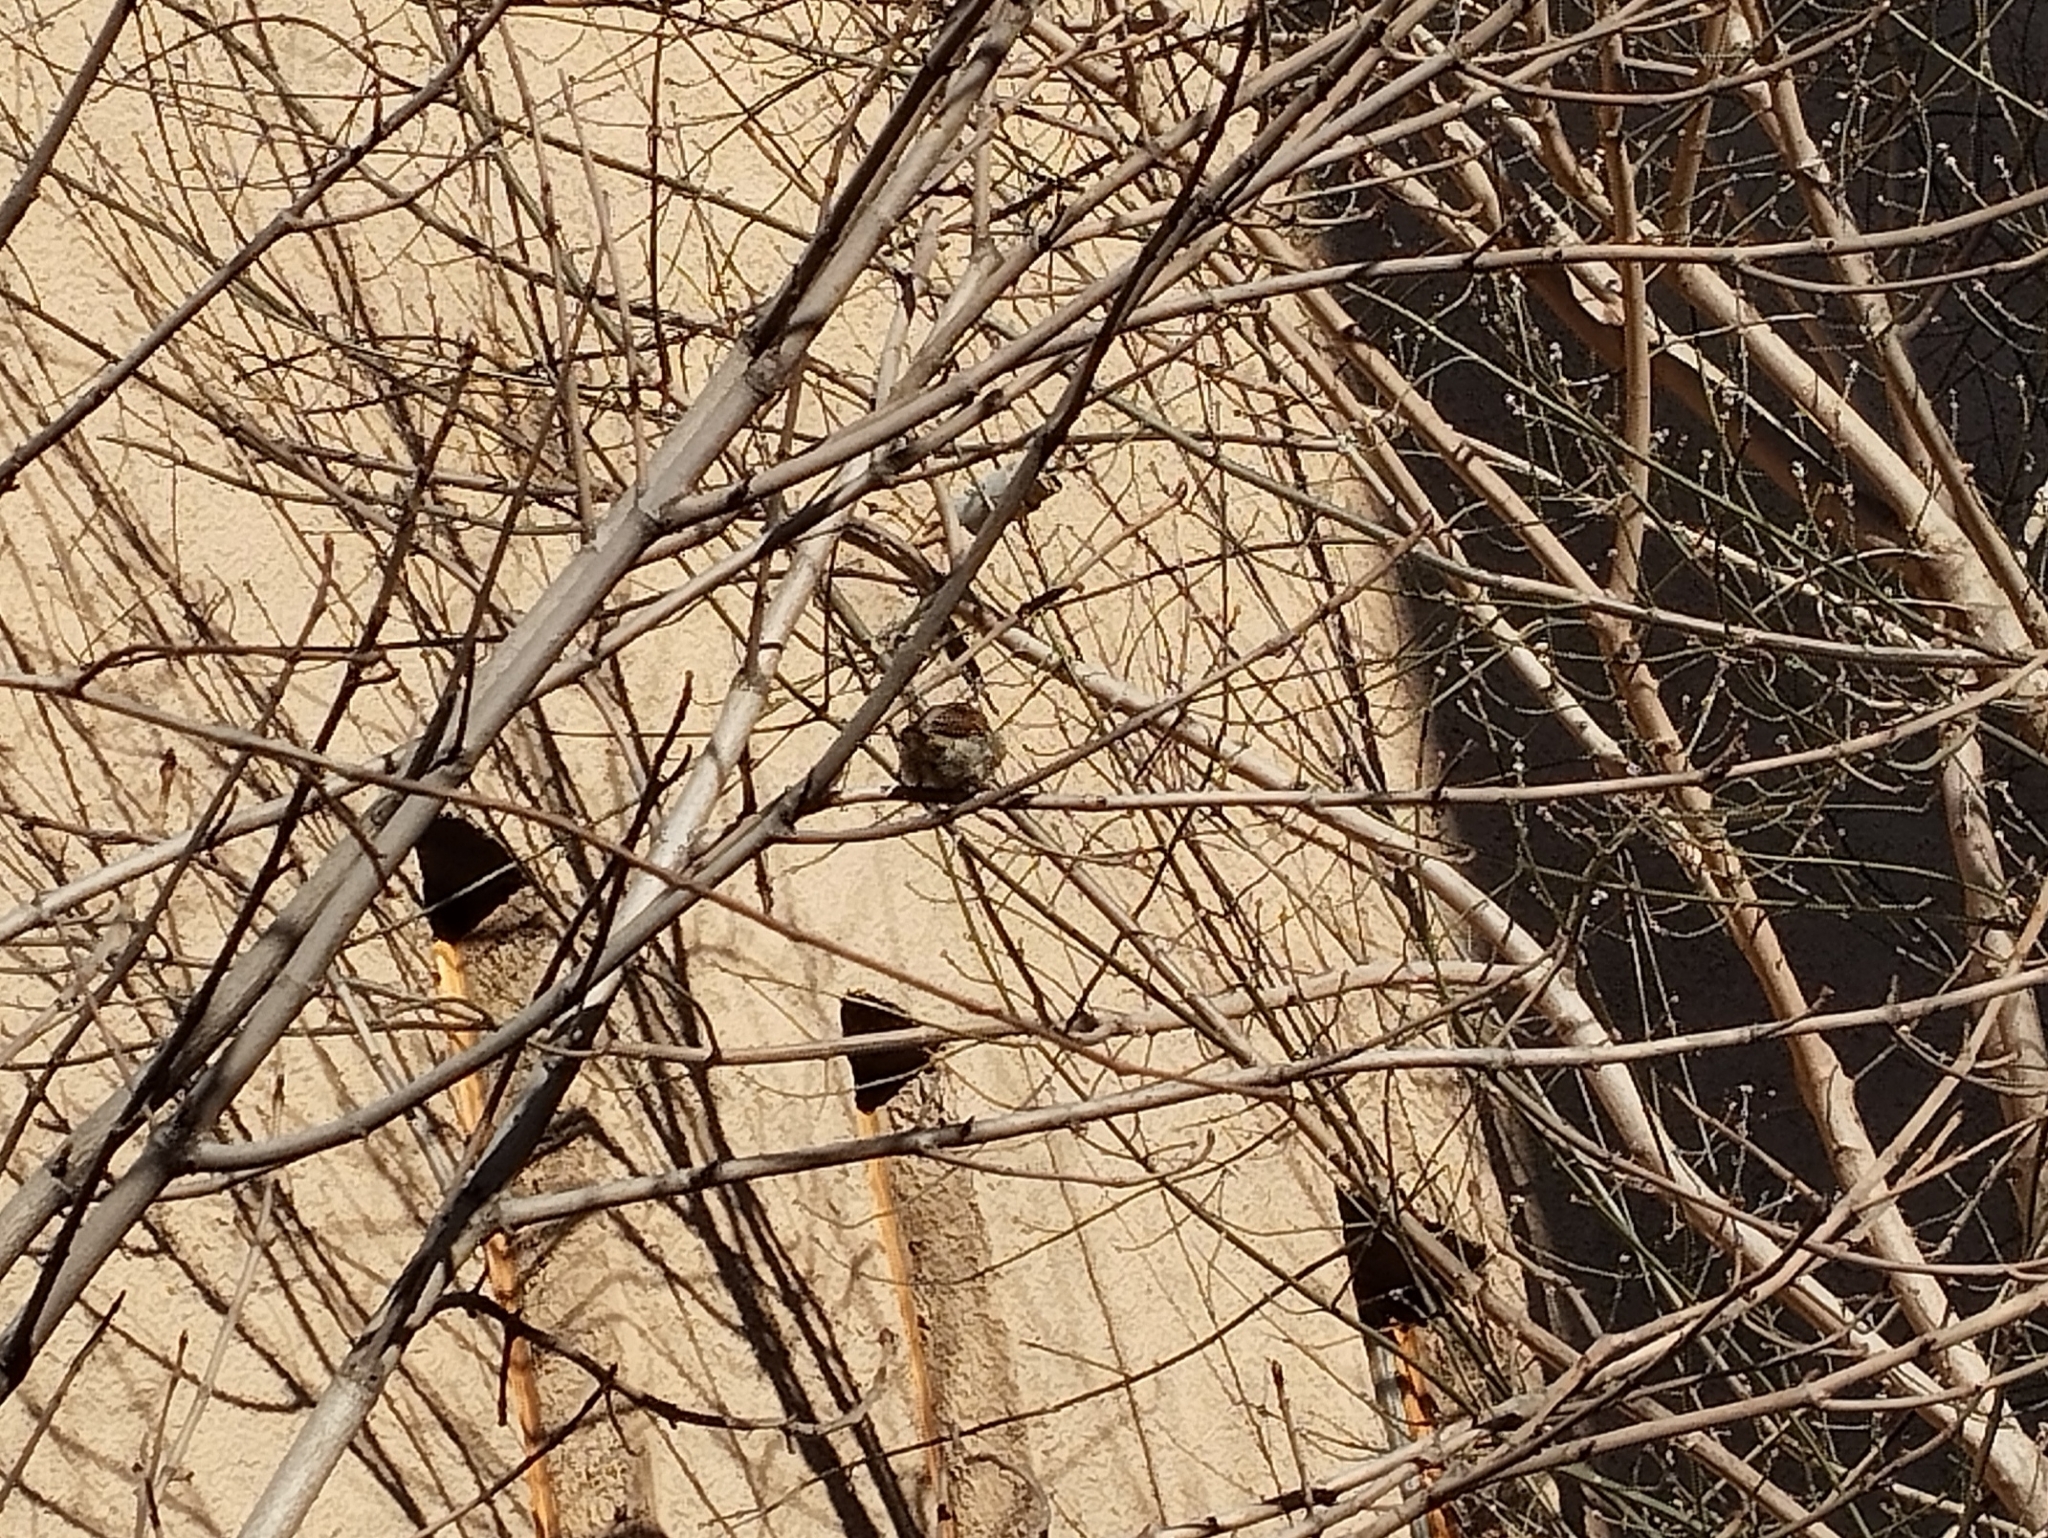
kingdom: Animalia
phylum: Chordata
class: Aves
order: Passeriformes
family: Passeridae
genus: Passer
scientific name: Passer domesticus
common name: House sparrow
